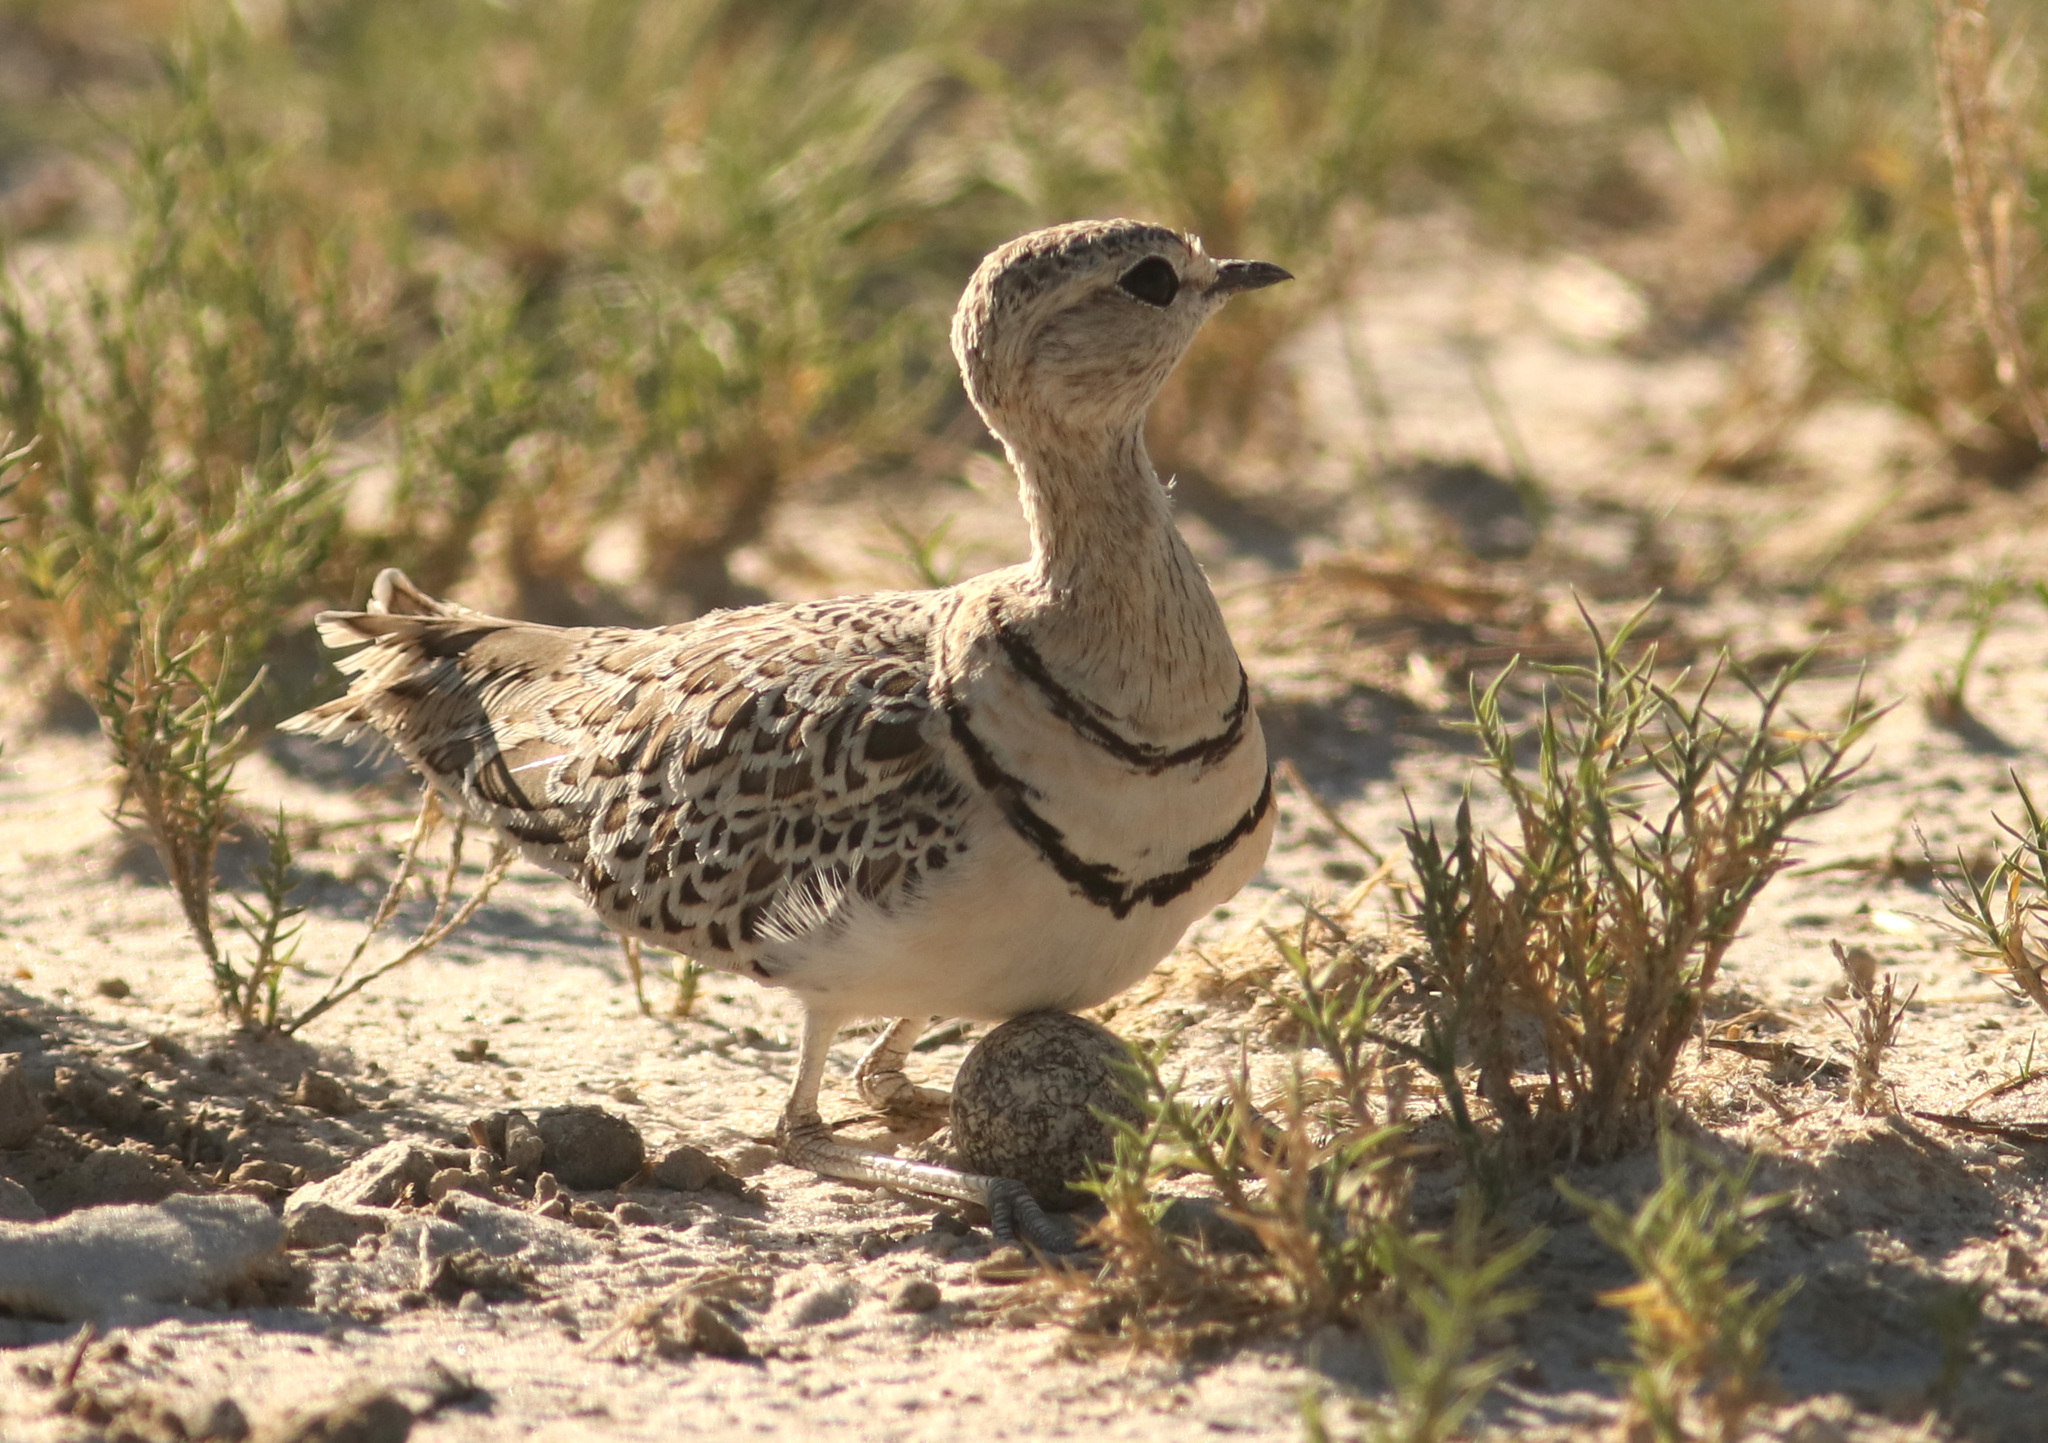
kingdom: Animalia
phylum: Chordata
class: Aves
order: Charadriiformes
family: Glareolidae
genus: Rhinoptilus
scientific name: Rhinoptilus africanus
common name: Double-banded courser
